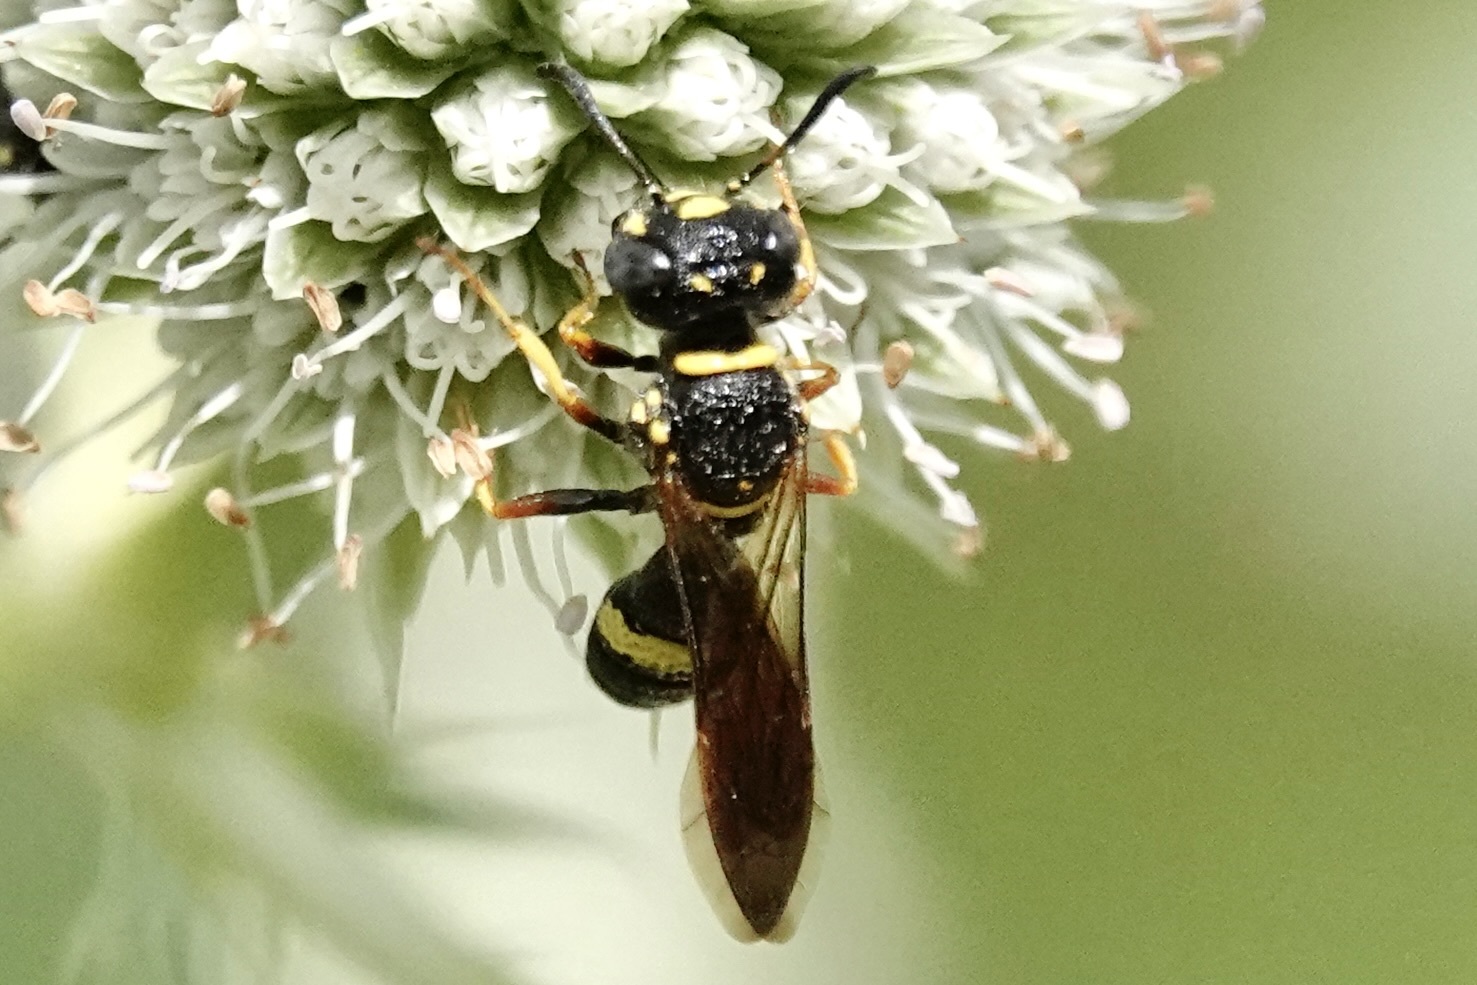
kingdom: Animalia
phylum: Arthropoda
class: Insecta
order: Hymenoptera
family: Crabronidae
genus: Philanthus
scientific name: Philanthus gibbosus
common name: Humped beewolf
